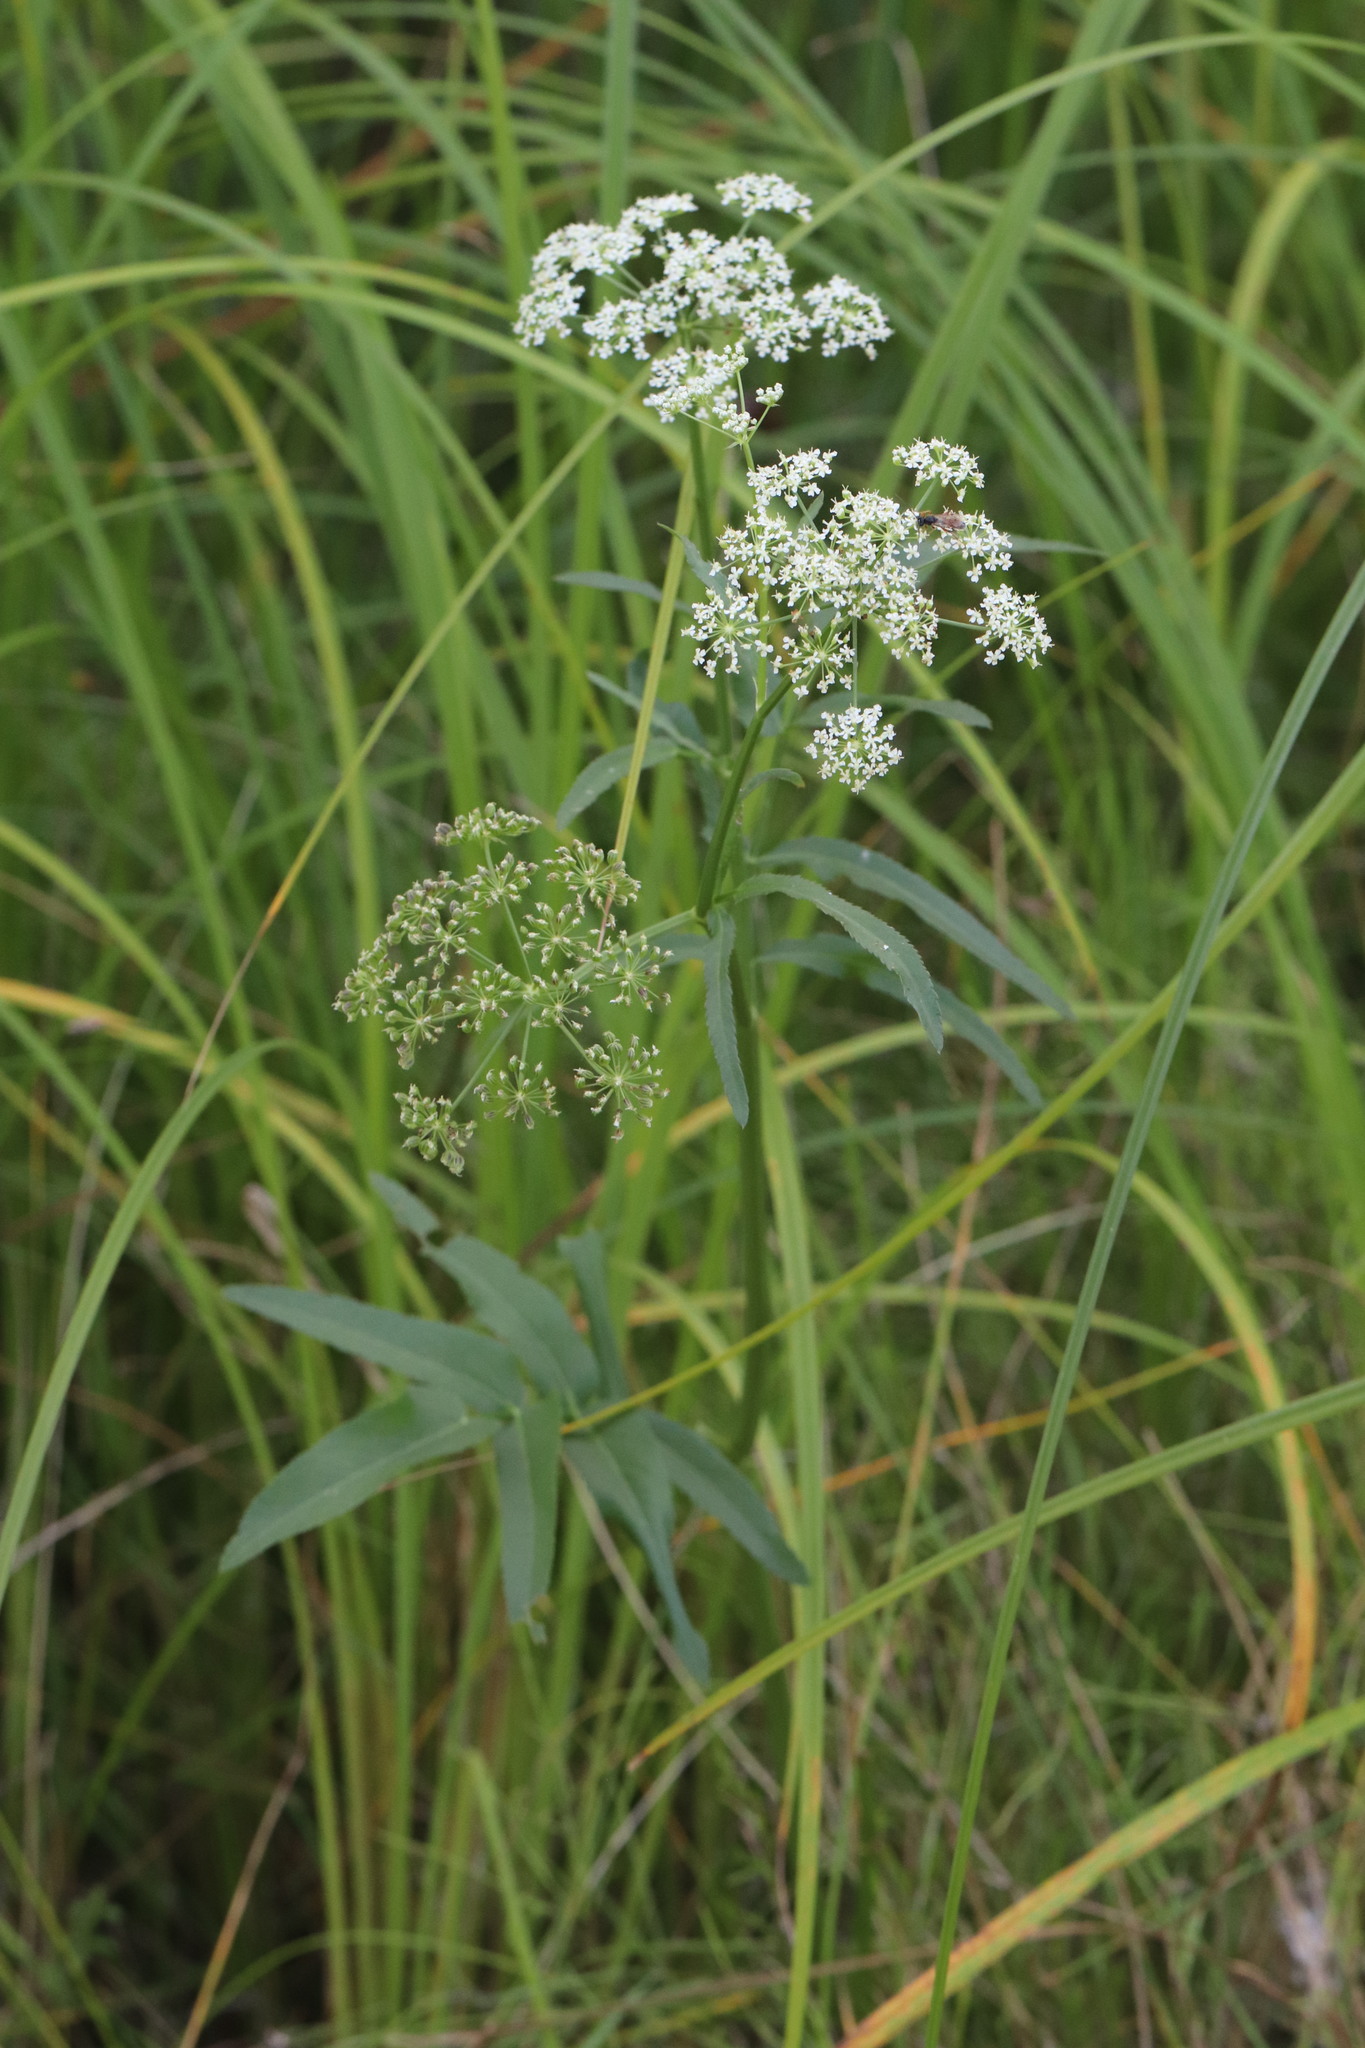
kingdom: Plantae
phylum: Tracheophyta
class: Magnoliopsida
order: Apiales
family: Apiaceae
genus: Sium
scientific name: Sium latifolium
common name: Greater water-parsnip
